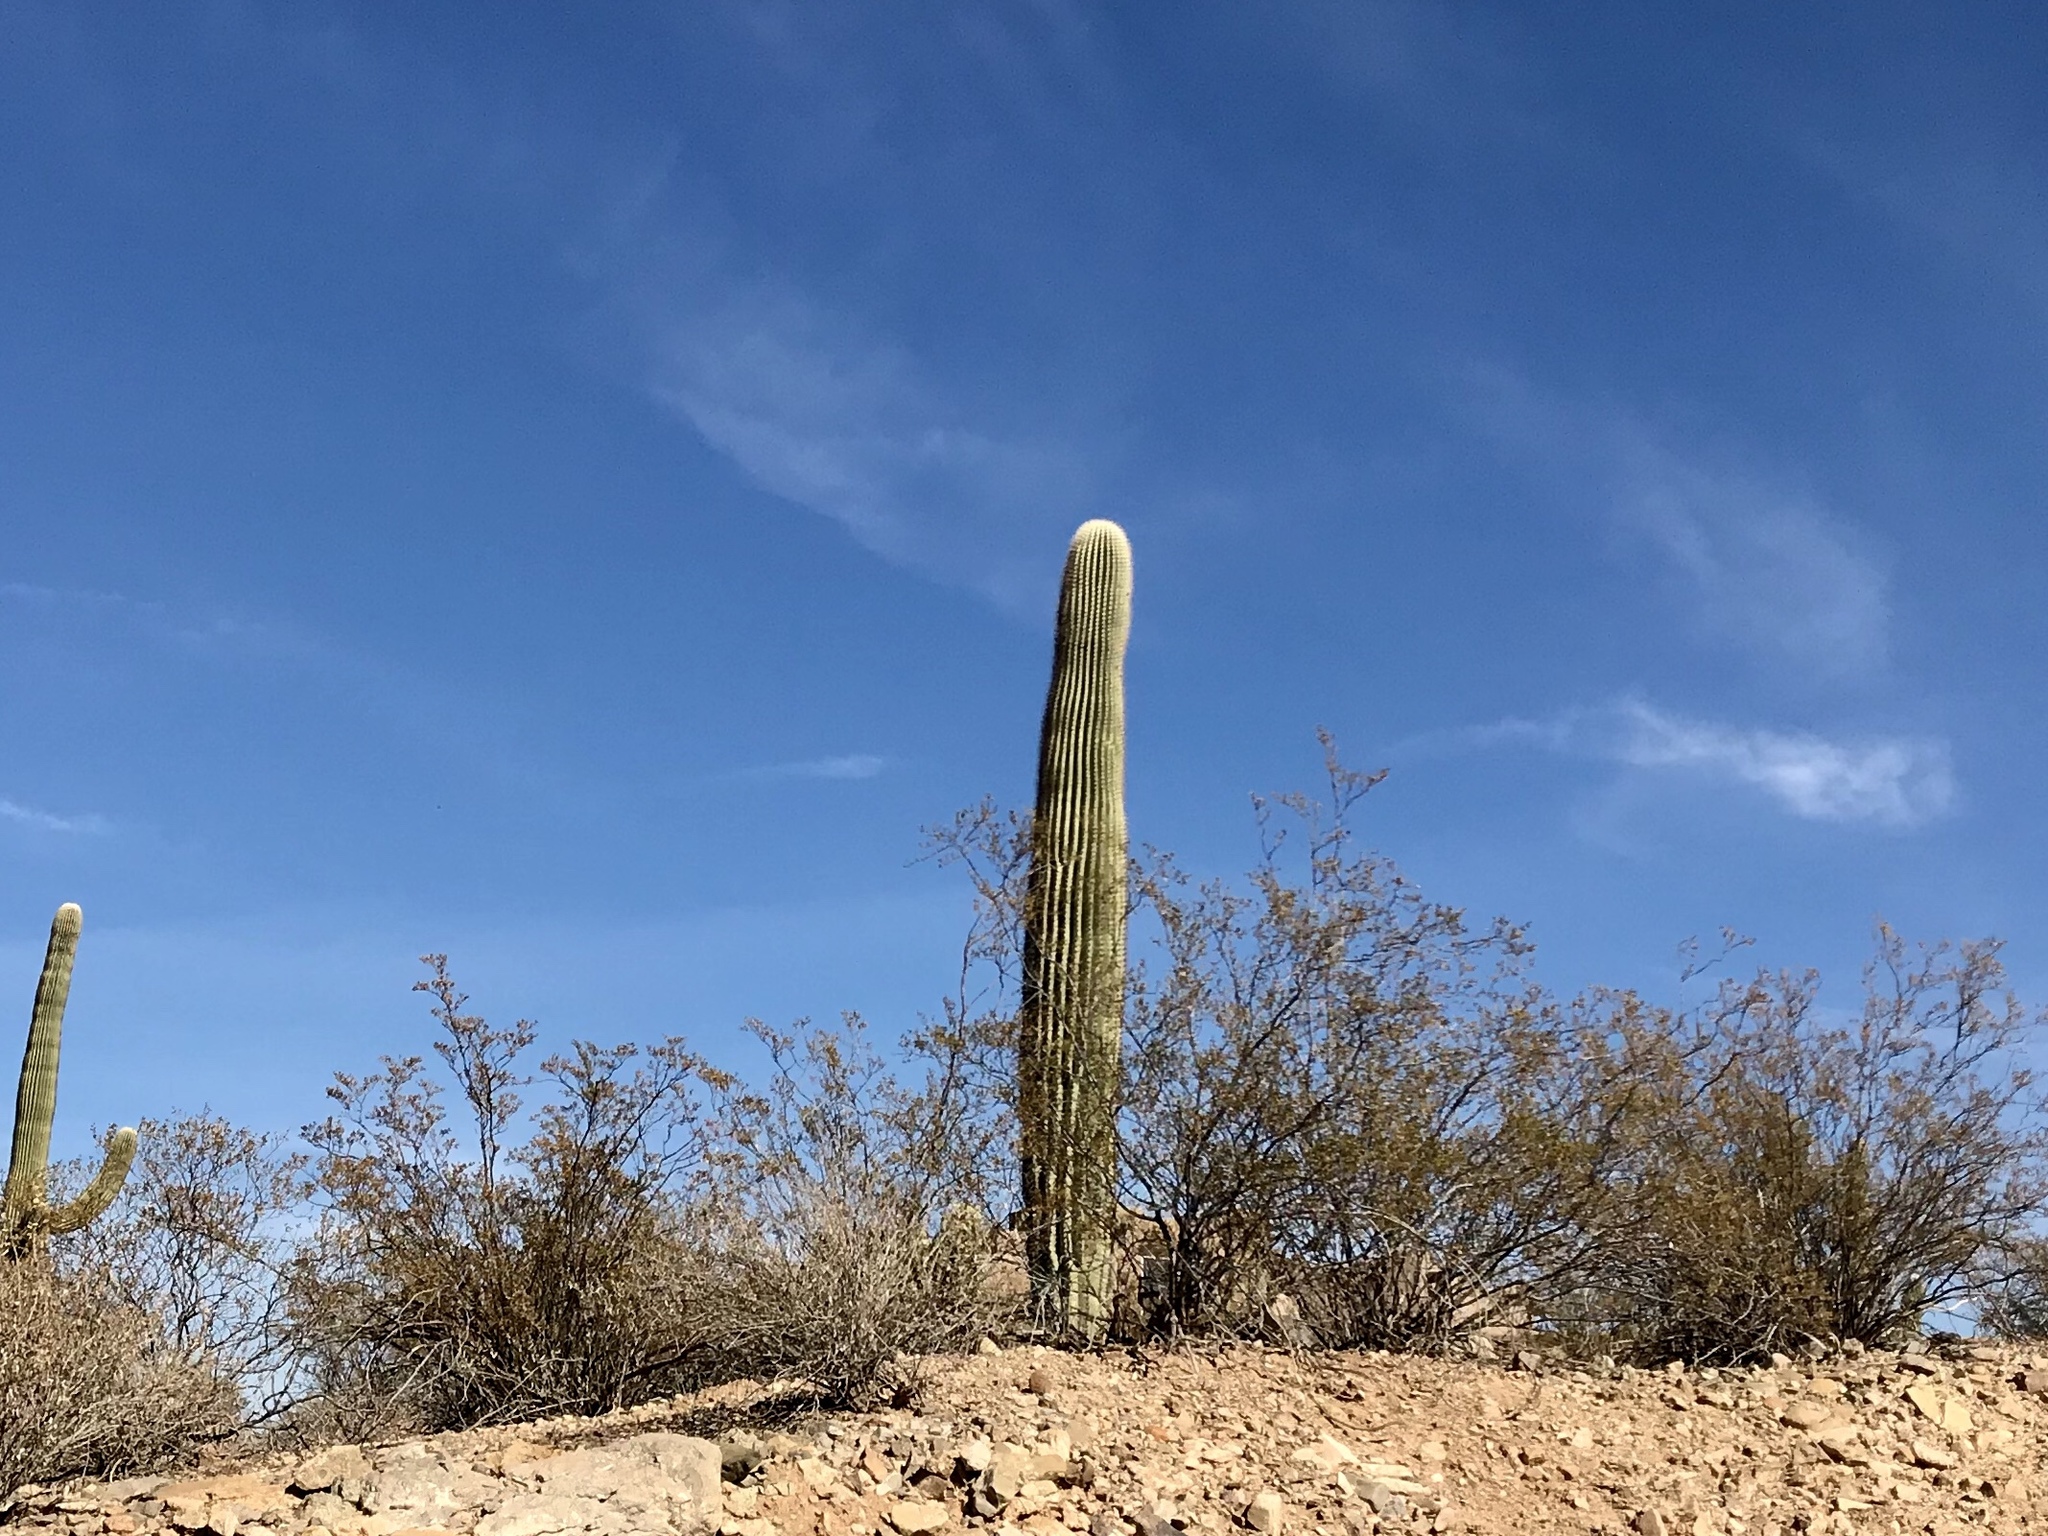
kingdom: Plantae
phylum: Tracheophyta
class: Magnoliopsida
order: Caryophyllales
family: Cactaceae
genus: Carnegiea
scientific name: Carnegiea gigantea
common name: Saguaro
